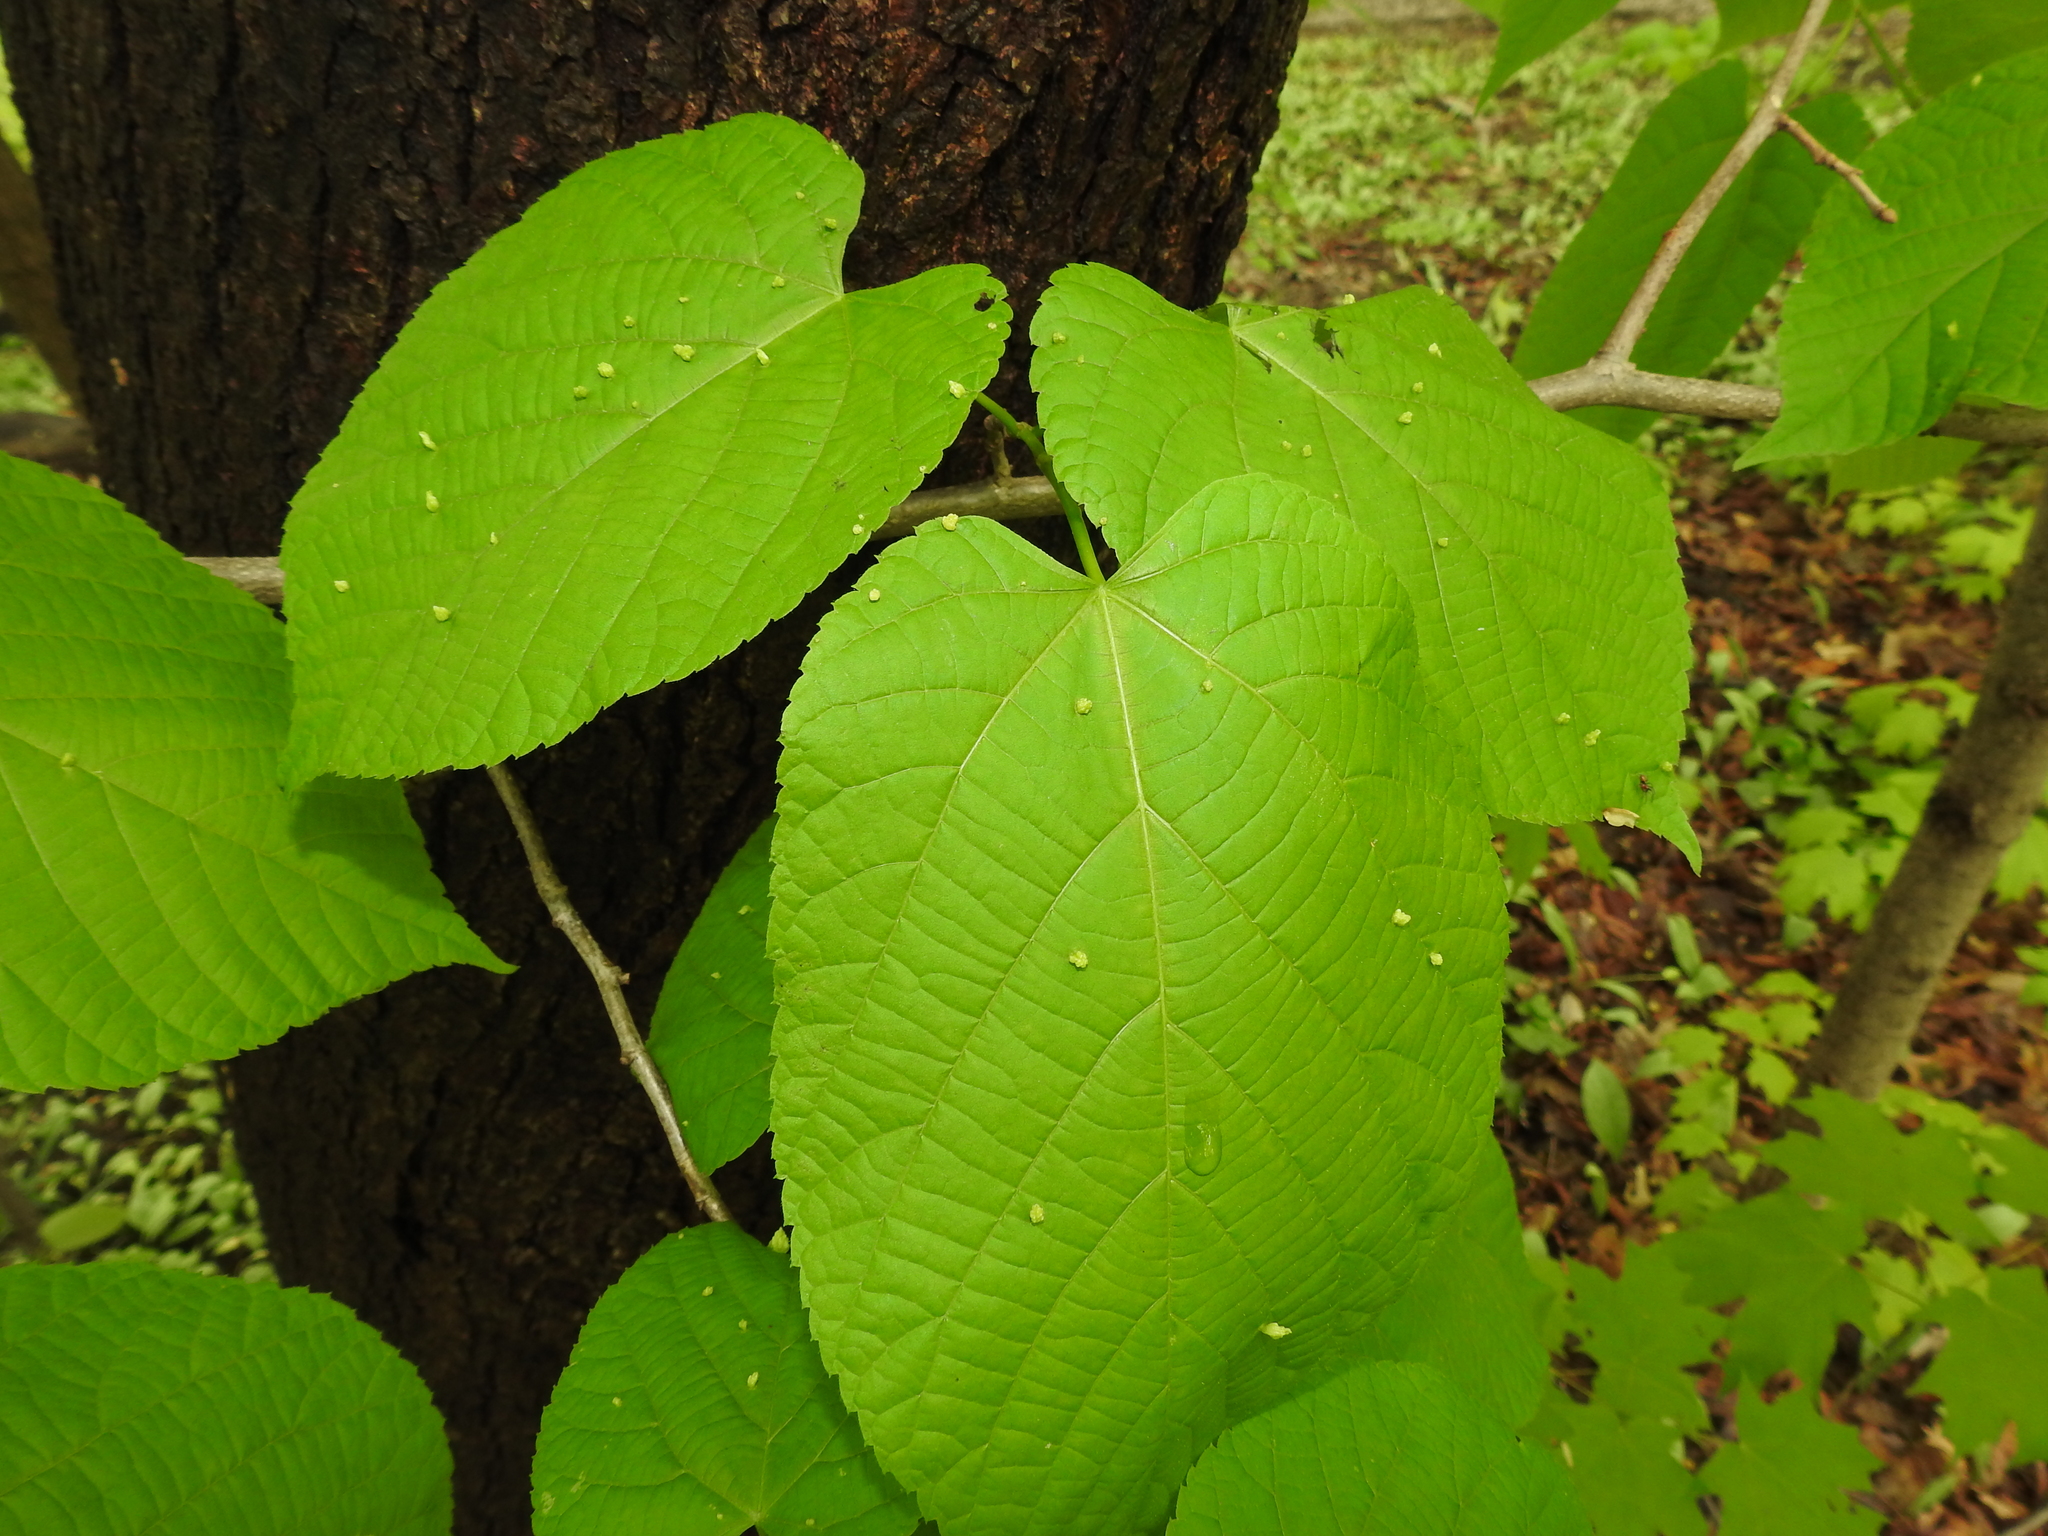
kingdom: Plantae
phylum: Tracheophyta
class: Magnoliopsida
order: Malvales
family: Malvaceae
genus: Tilia
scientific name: Tilia americana
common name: Basswood
